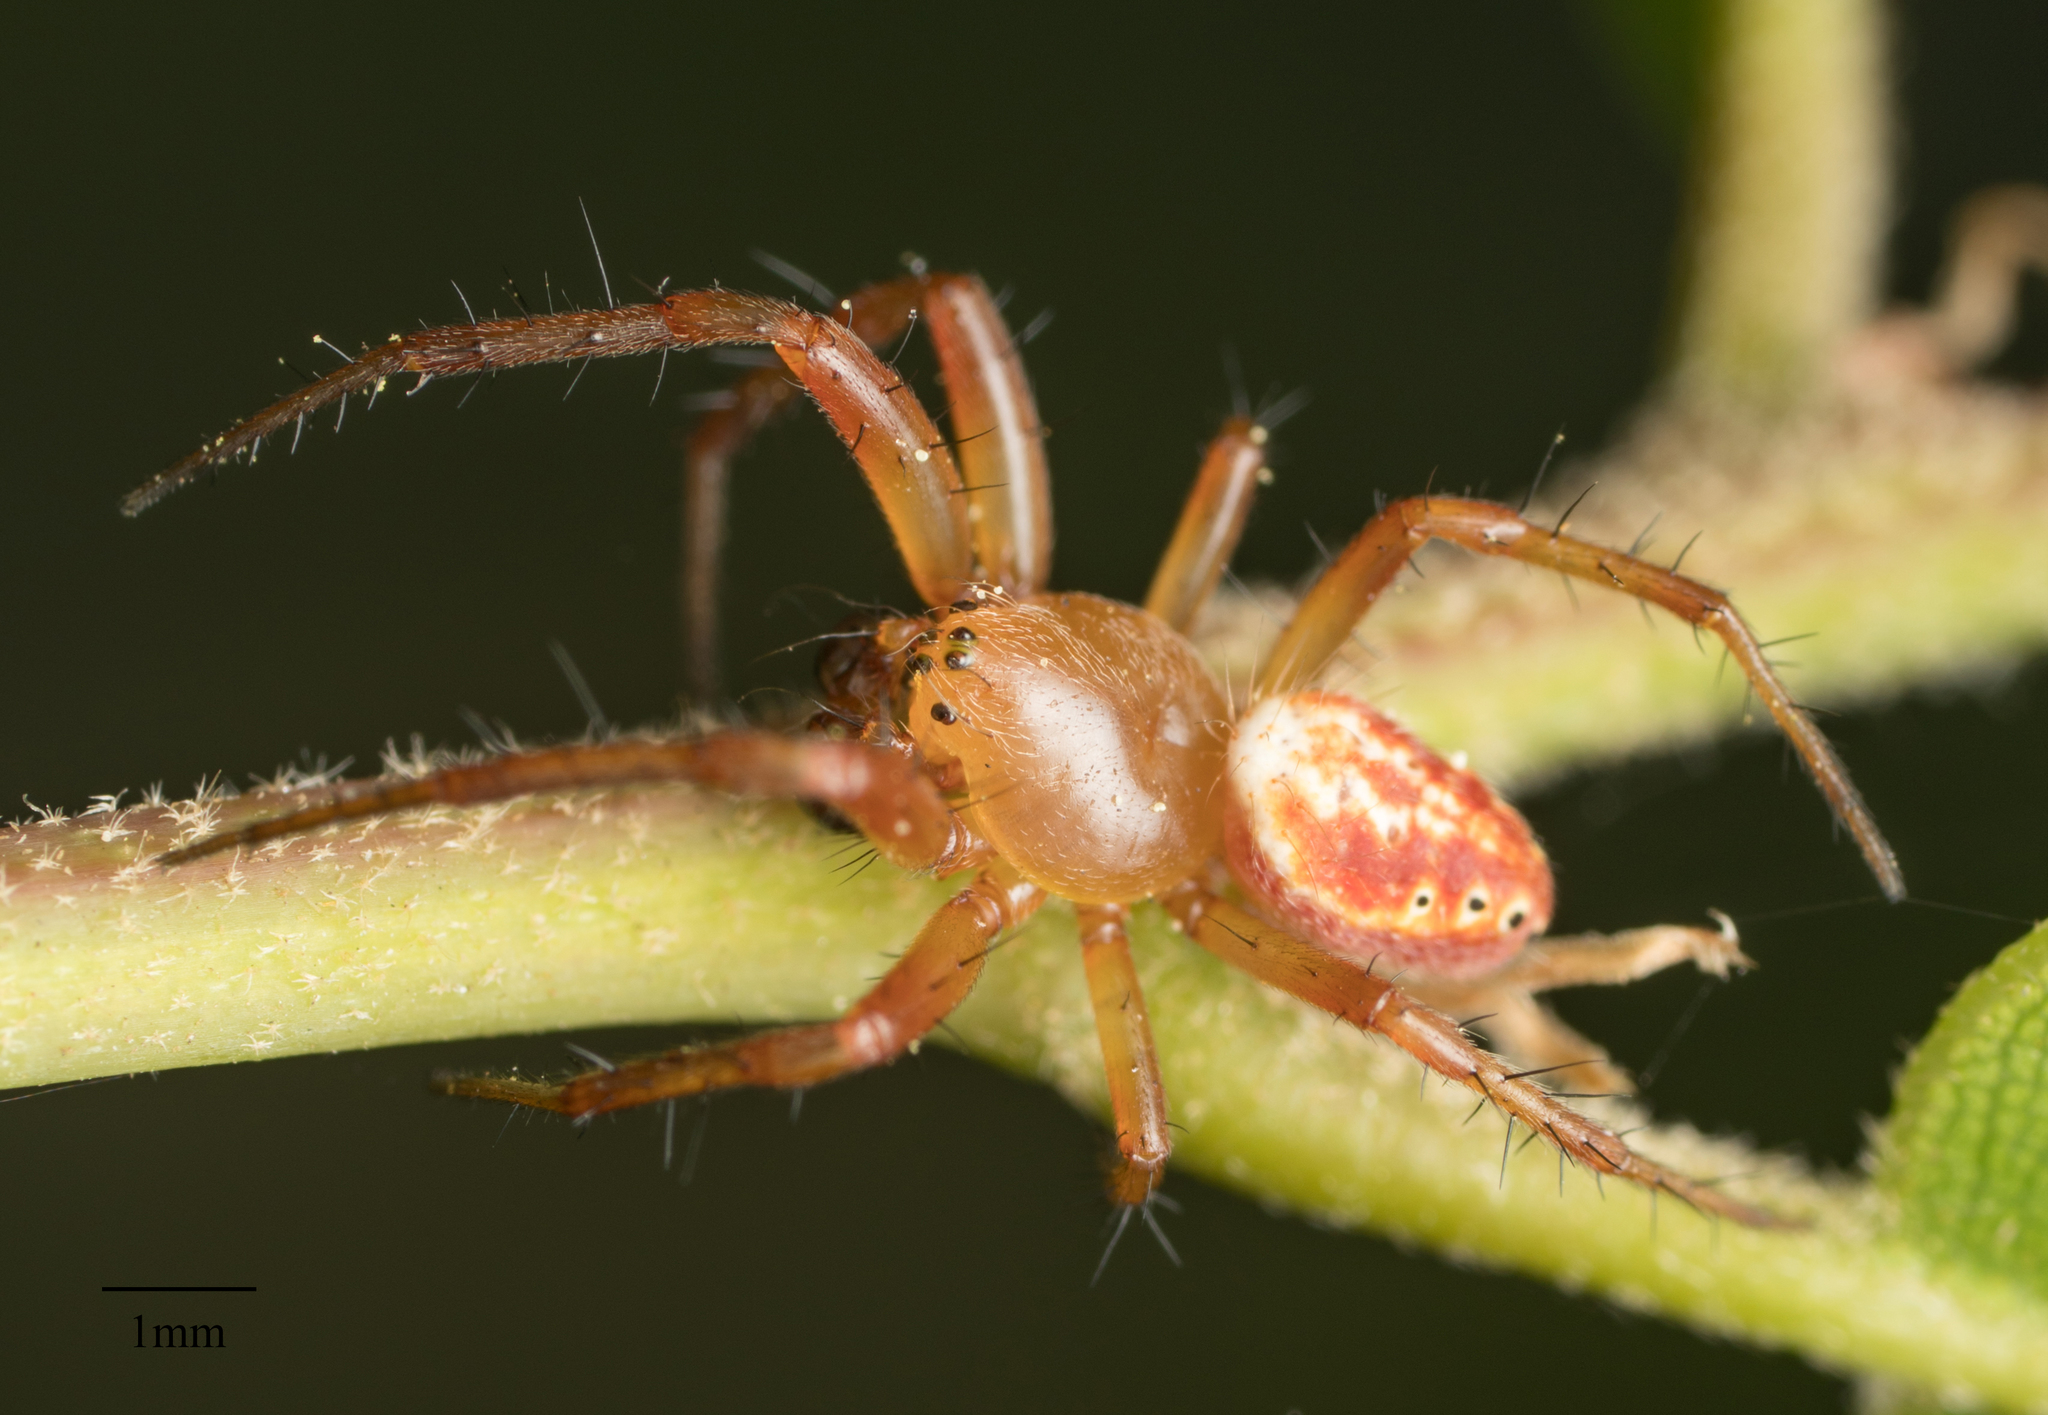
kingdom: Animalia
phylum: Arthropoda
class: Arachnida
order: Araneae
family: Araneidae
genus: Araniella
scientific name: Araniella displicata
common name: Sixspotted orb weaver
